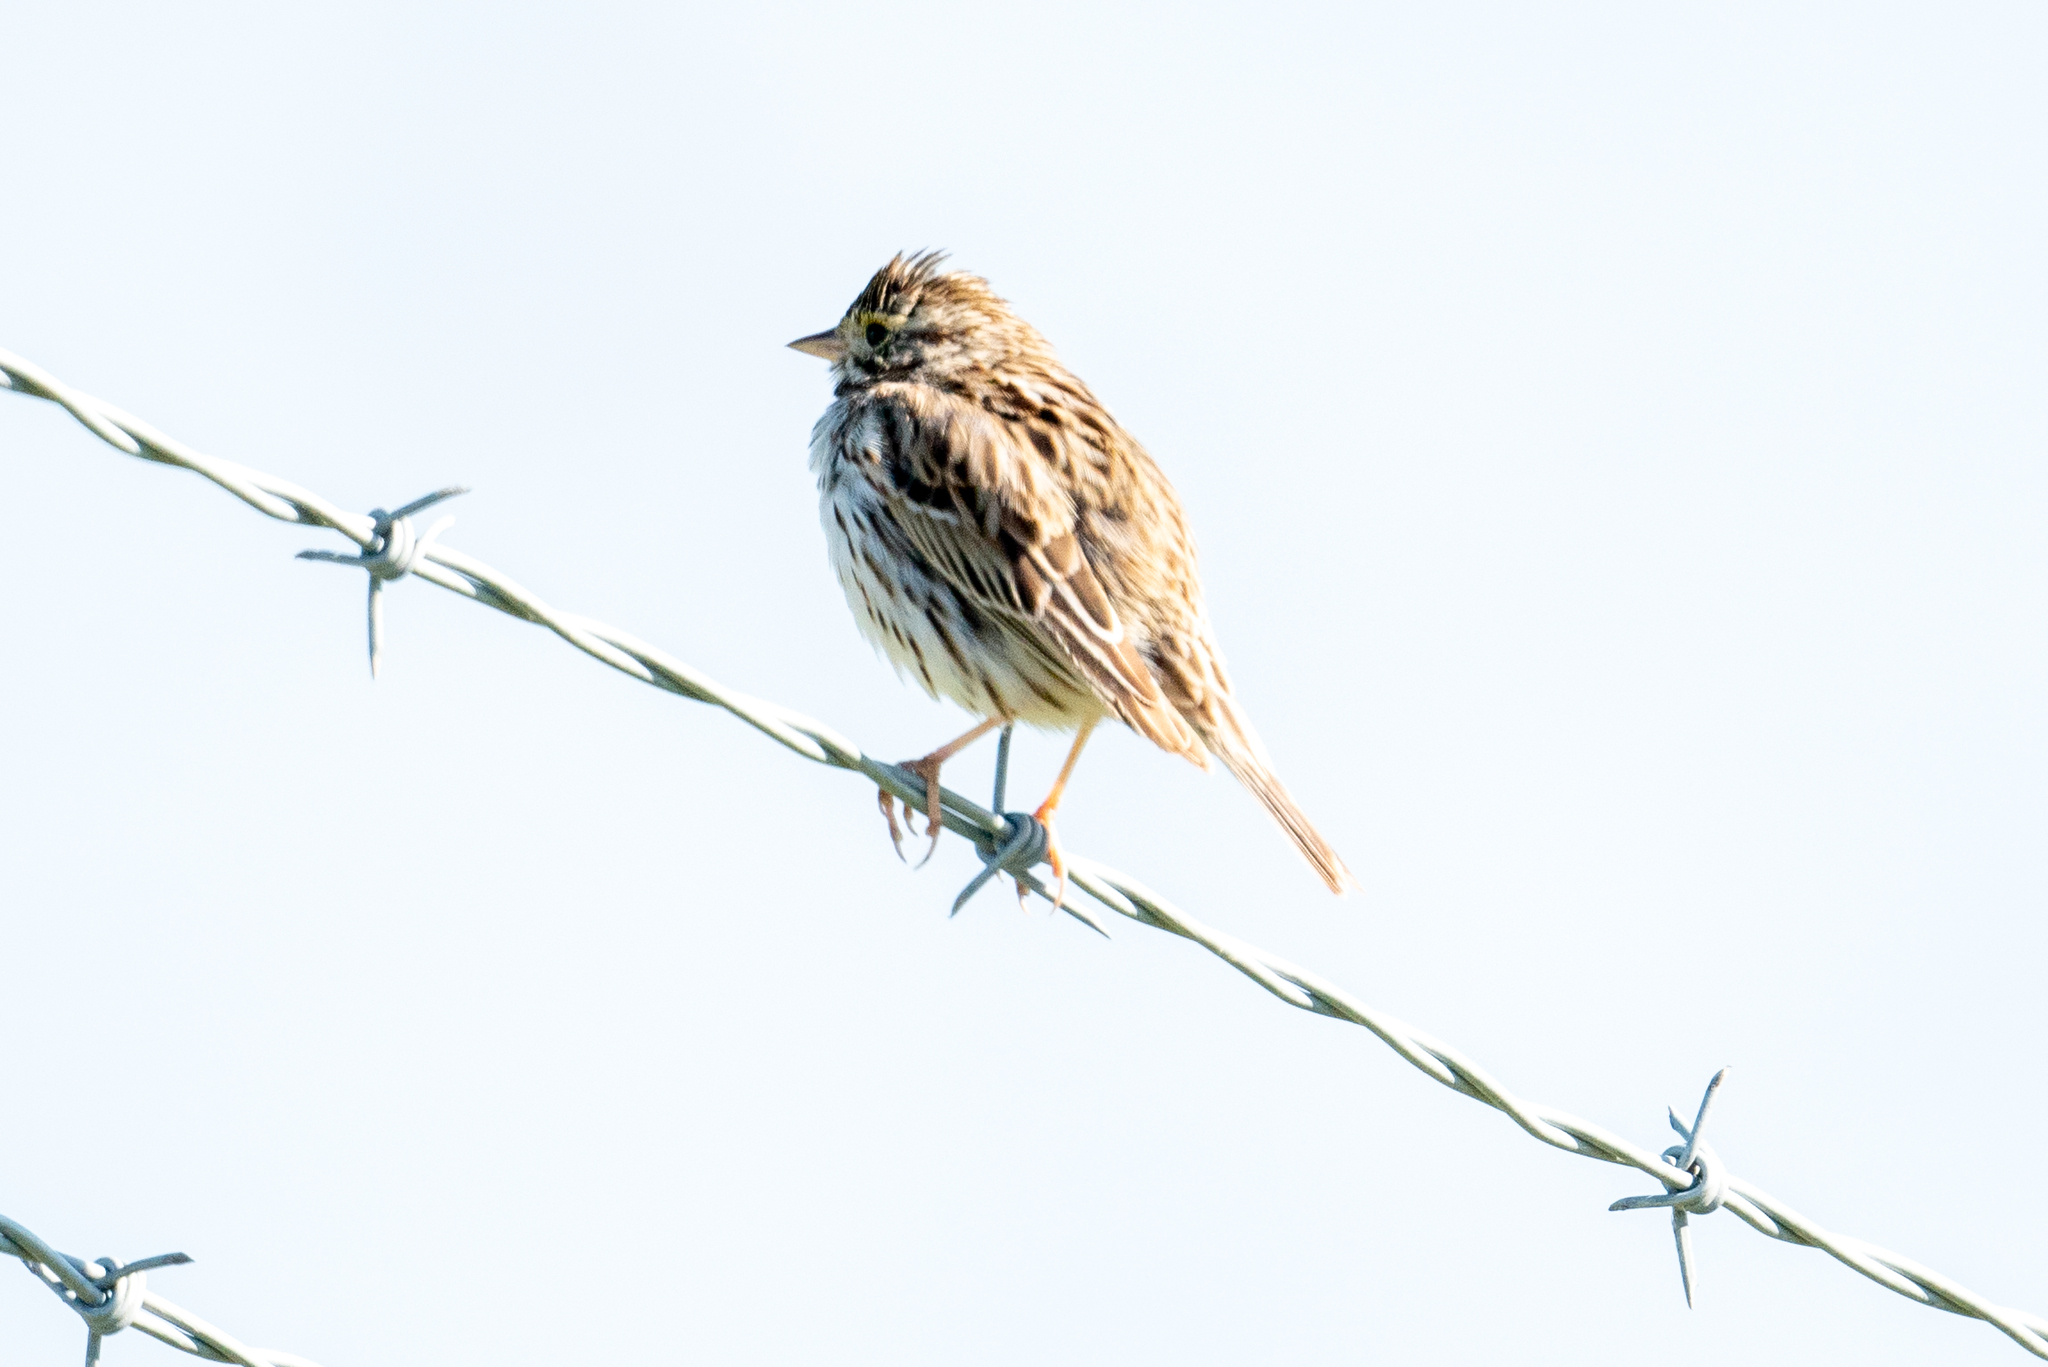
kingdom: Animalia
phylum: Chordata
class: Aves
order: Passeriformes
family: Passerellidae
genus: Passerculus
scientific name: Passerculus sandwichensis
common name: Savannah sparrow
